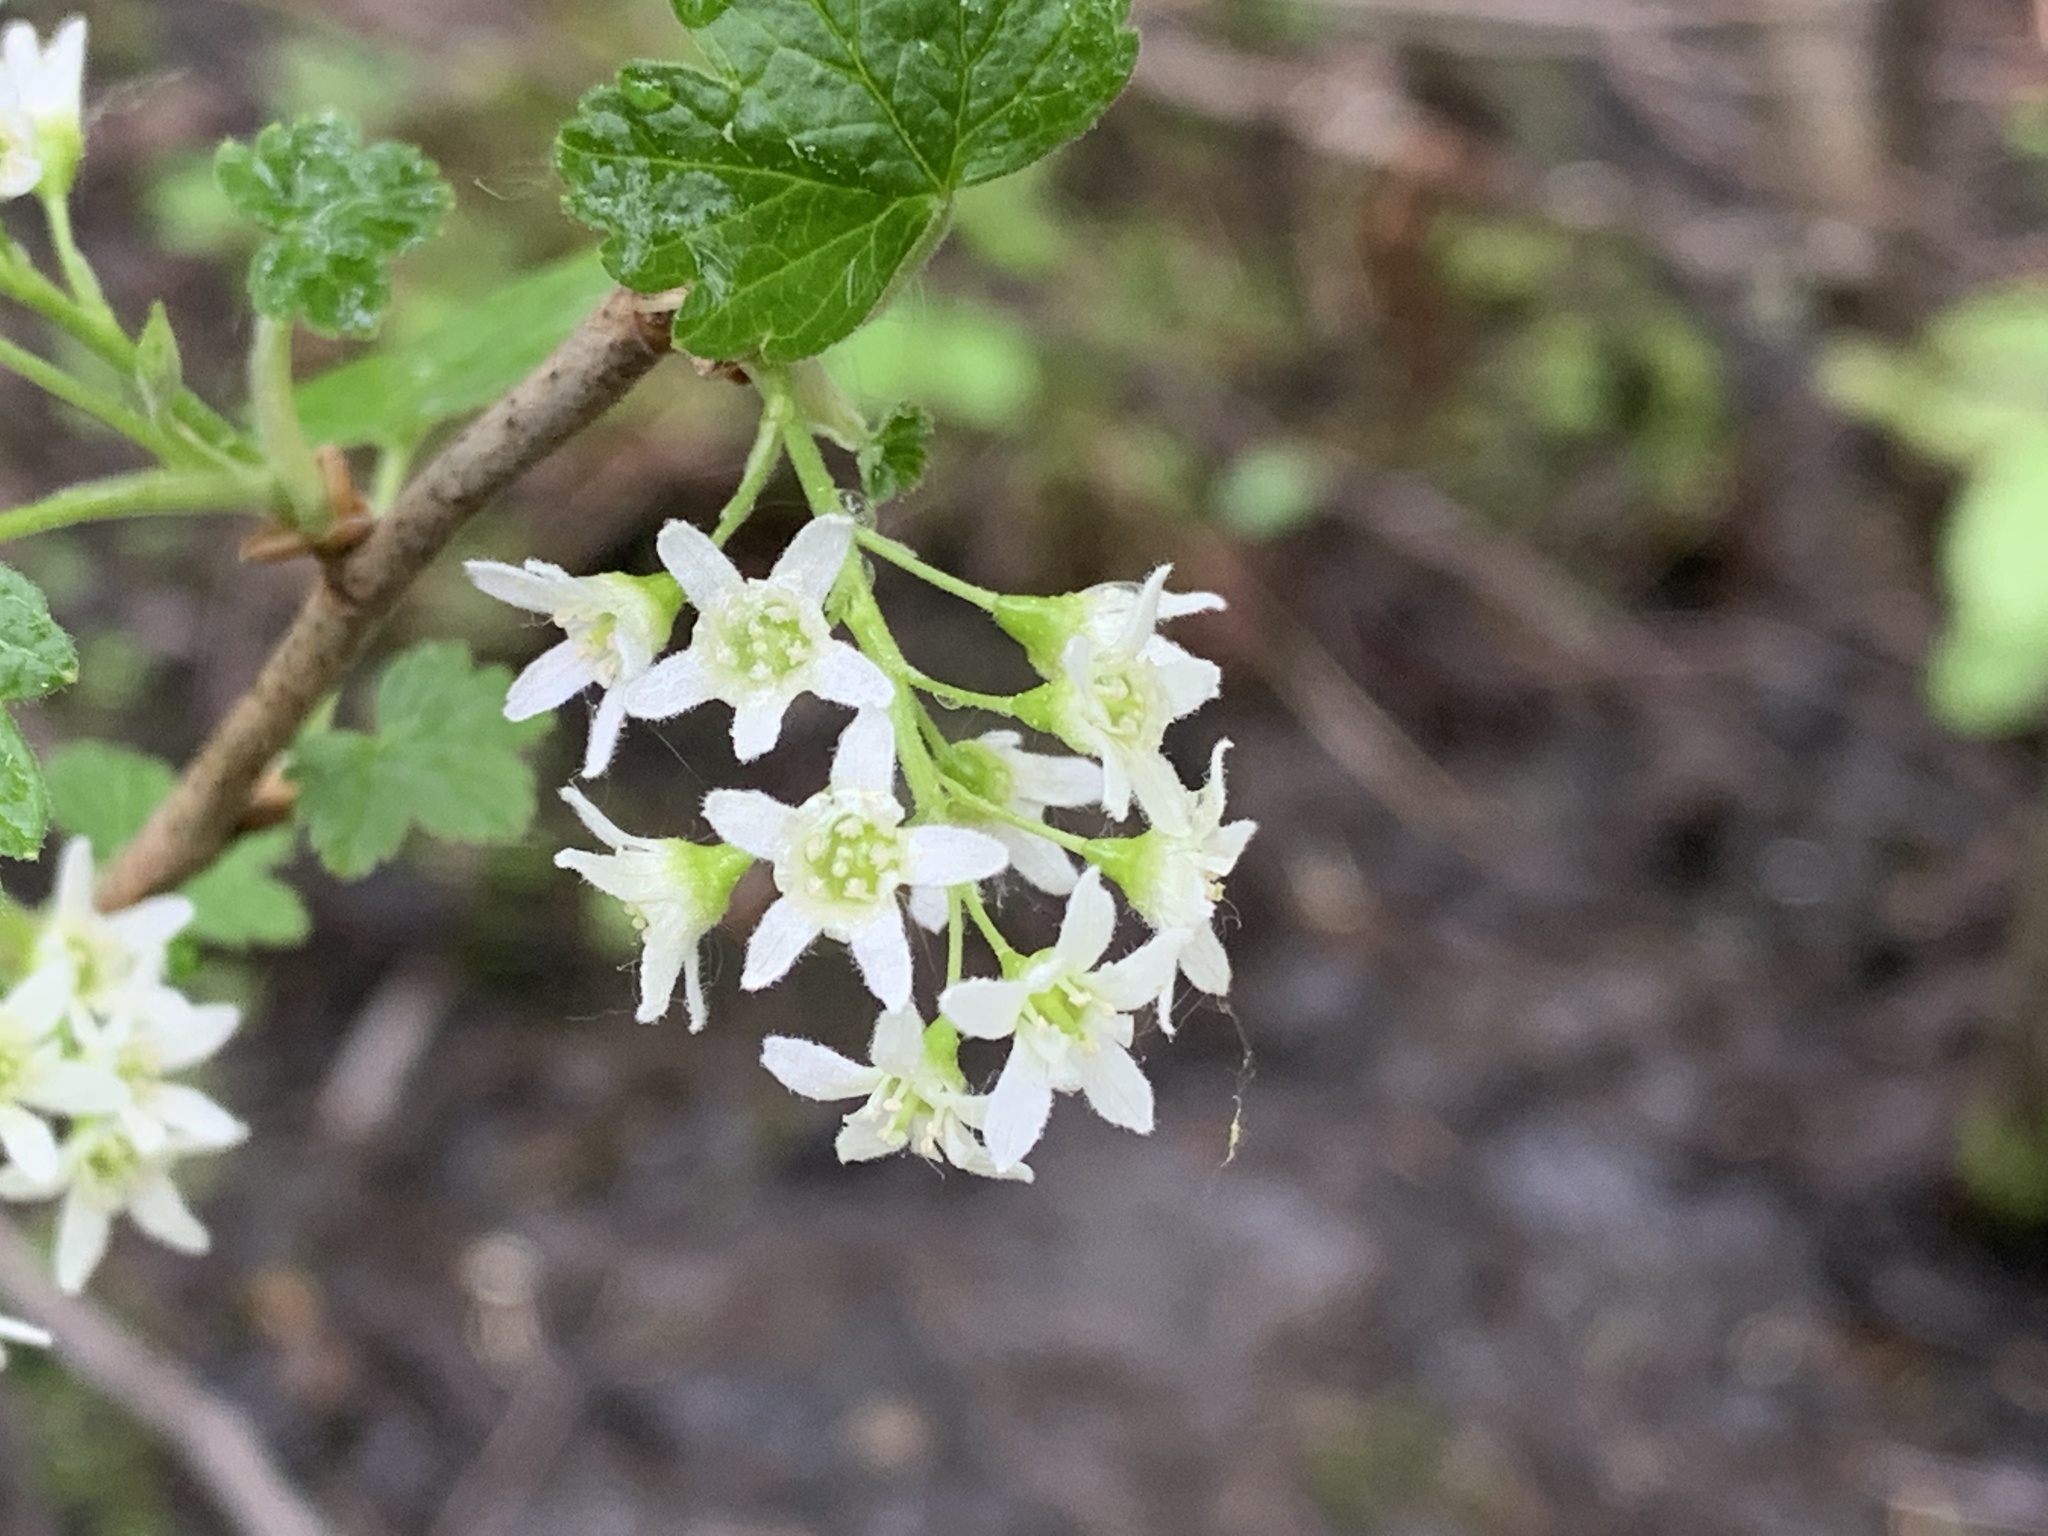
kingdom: Plantae
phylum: Tracheophyta
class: Magnoliopsida
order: Saxifragales
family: Grossulariaceae
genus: Ribes
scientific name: Ribes hudsonianum
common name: Northern black currant
